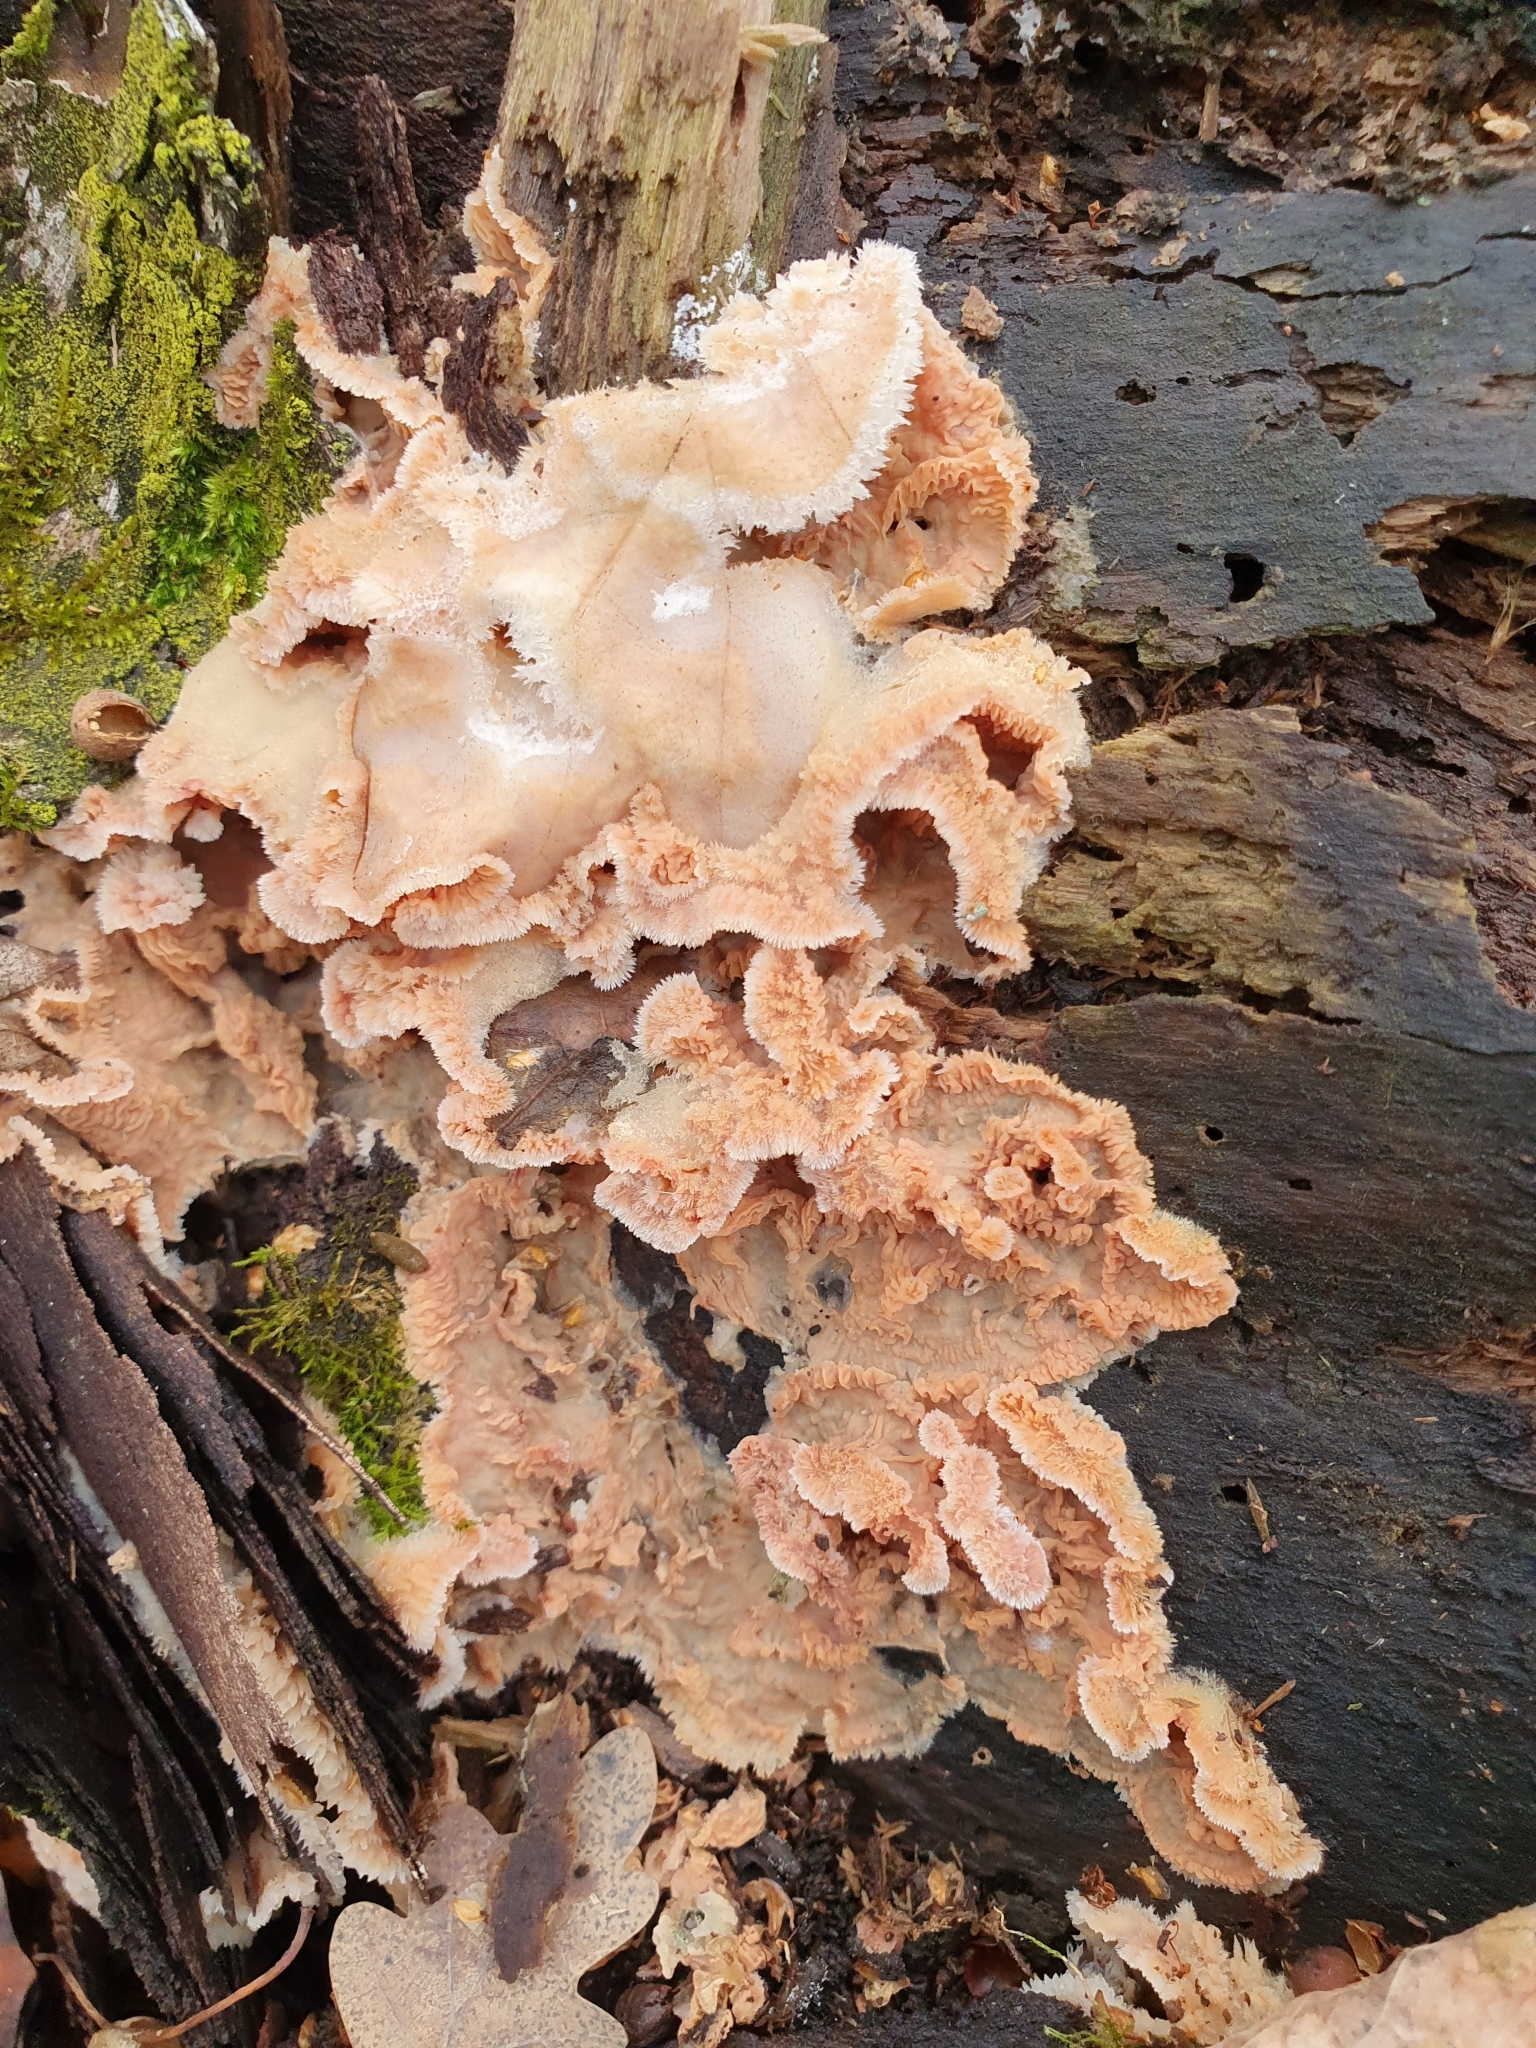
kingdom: Fungi
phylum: Basidiomycota
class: Agaricomycetes
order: Polyporales
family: Meruliaceae
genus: Phlebia
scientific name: Phlebia tremellosa
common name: Jelly rot
